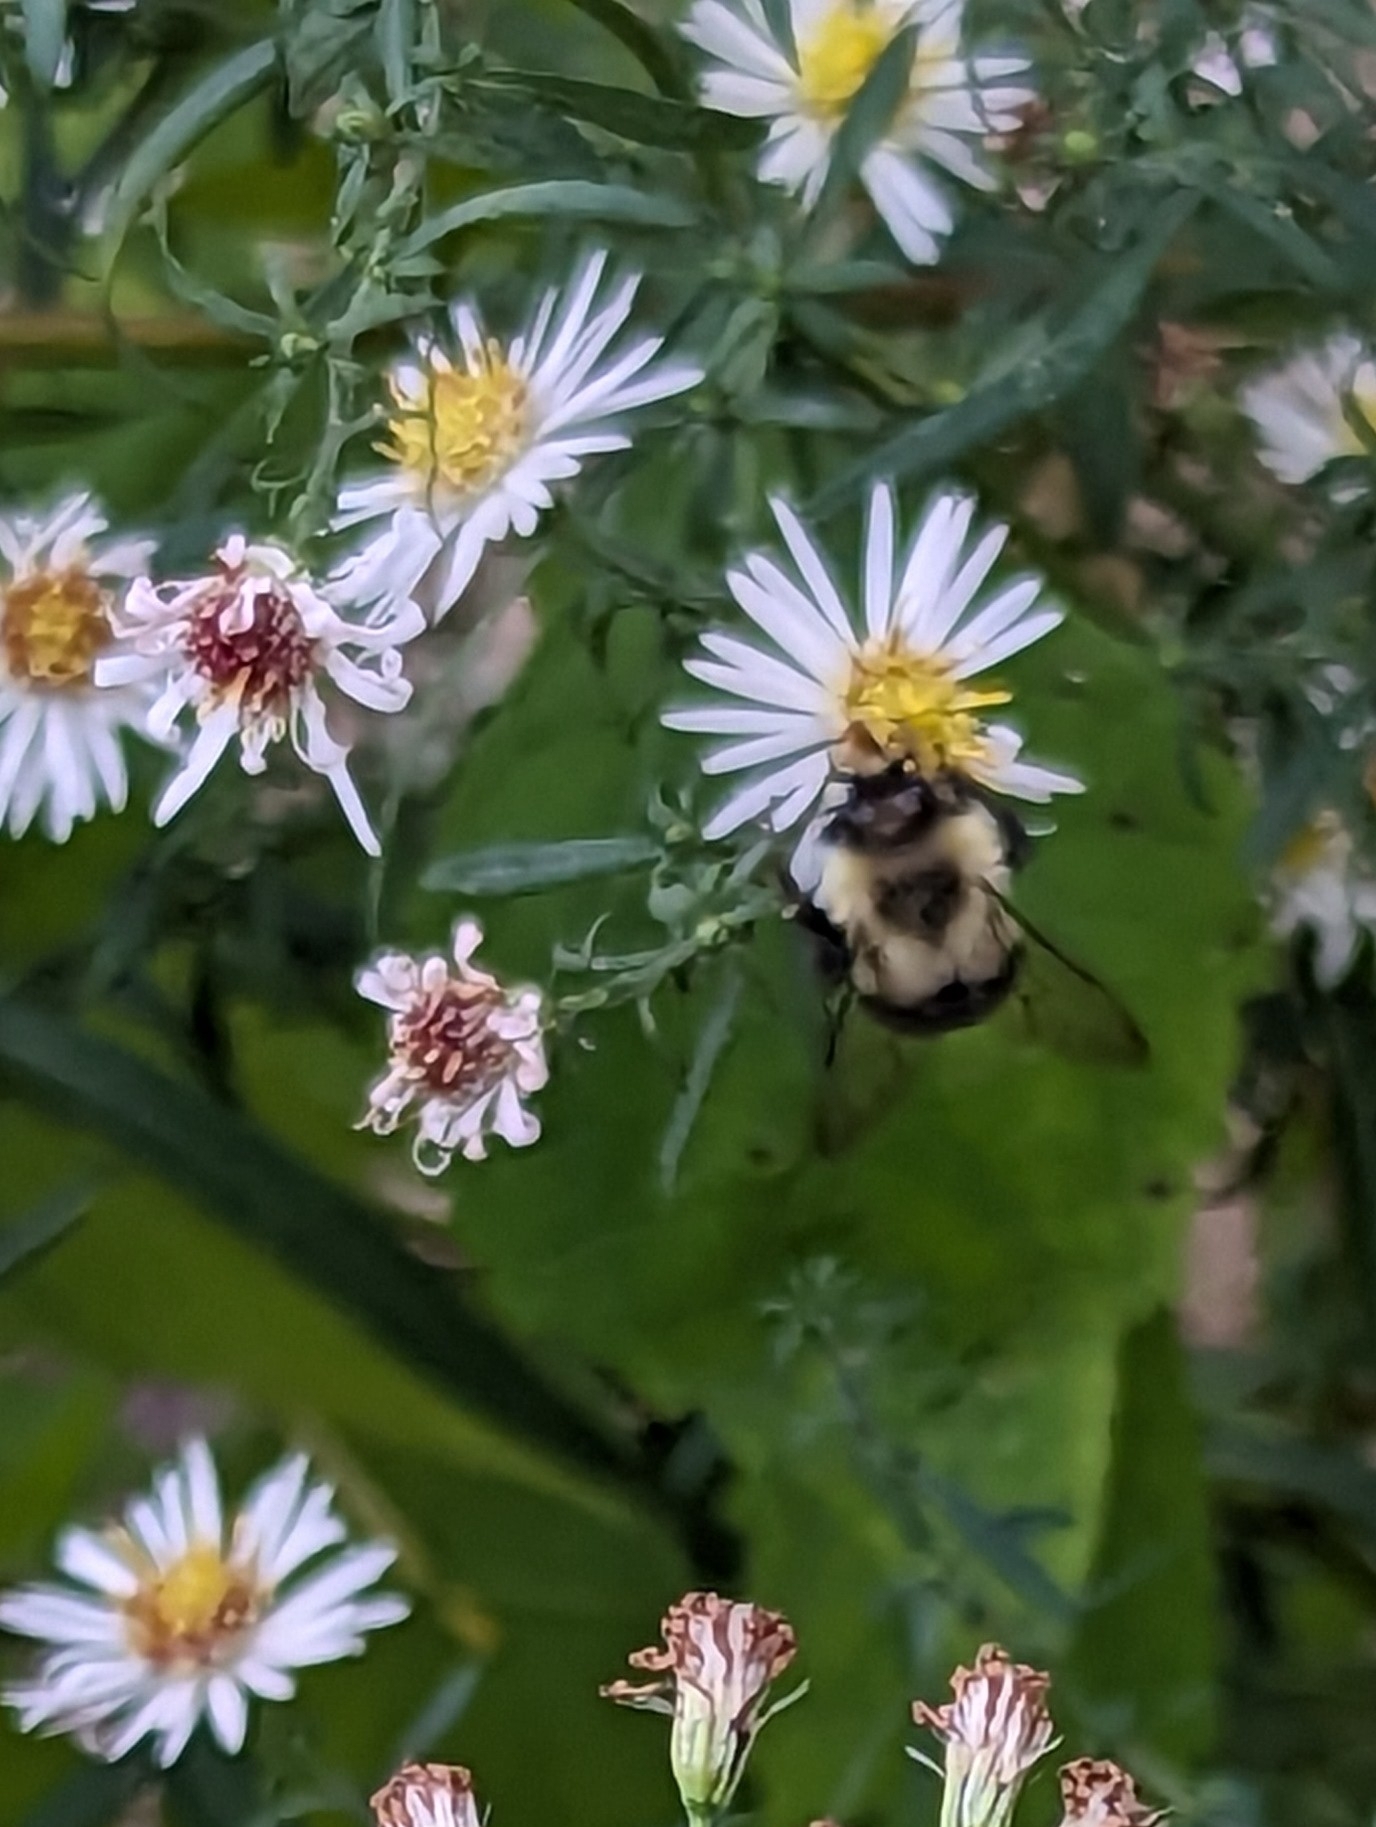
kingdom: Animalia
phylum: Arthropoda
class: Insecta
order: Hymenoptera
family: Apidae
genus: Bombus
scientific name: Bombus impatiens
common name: Common eastern bumble bee
